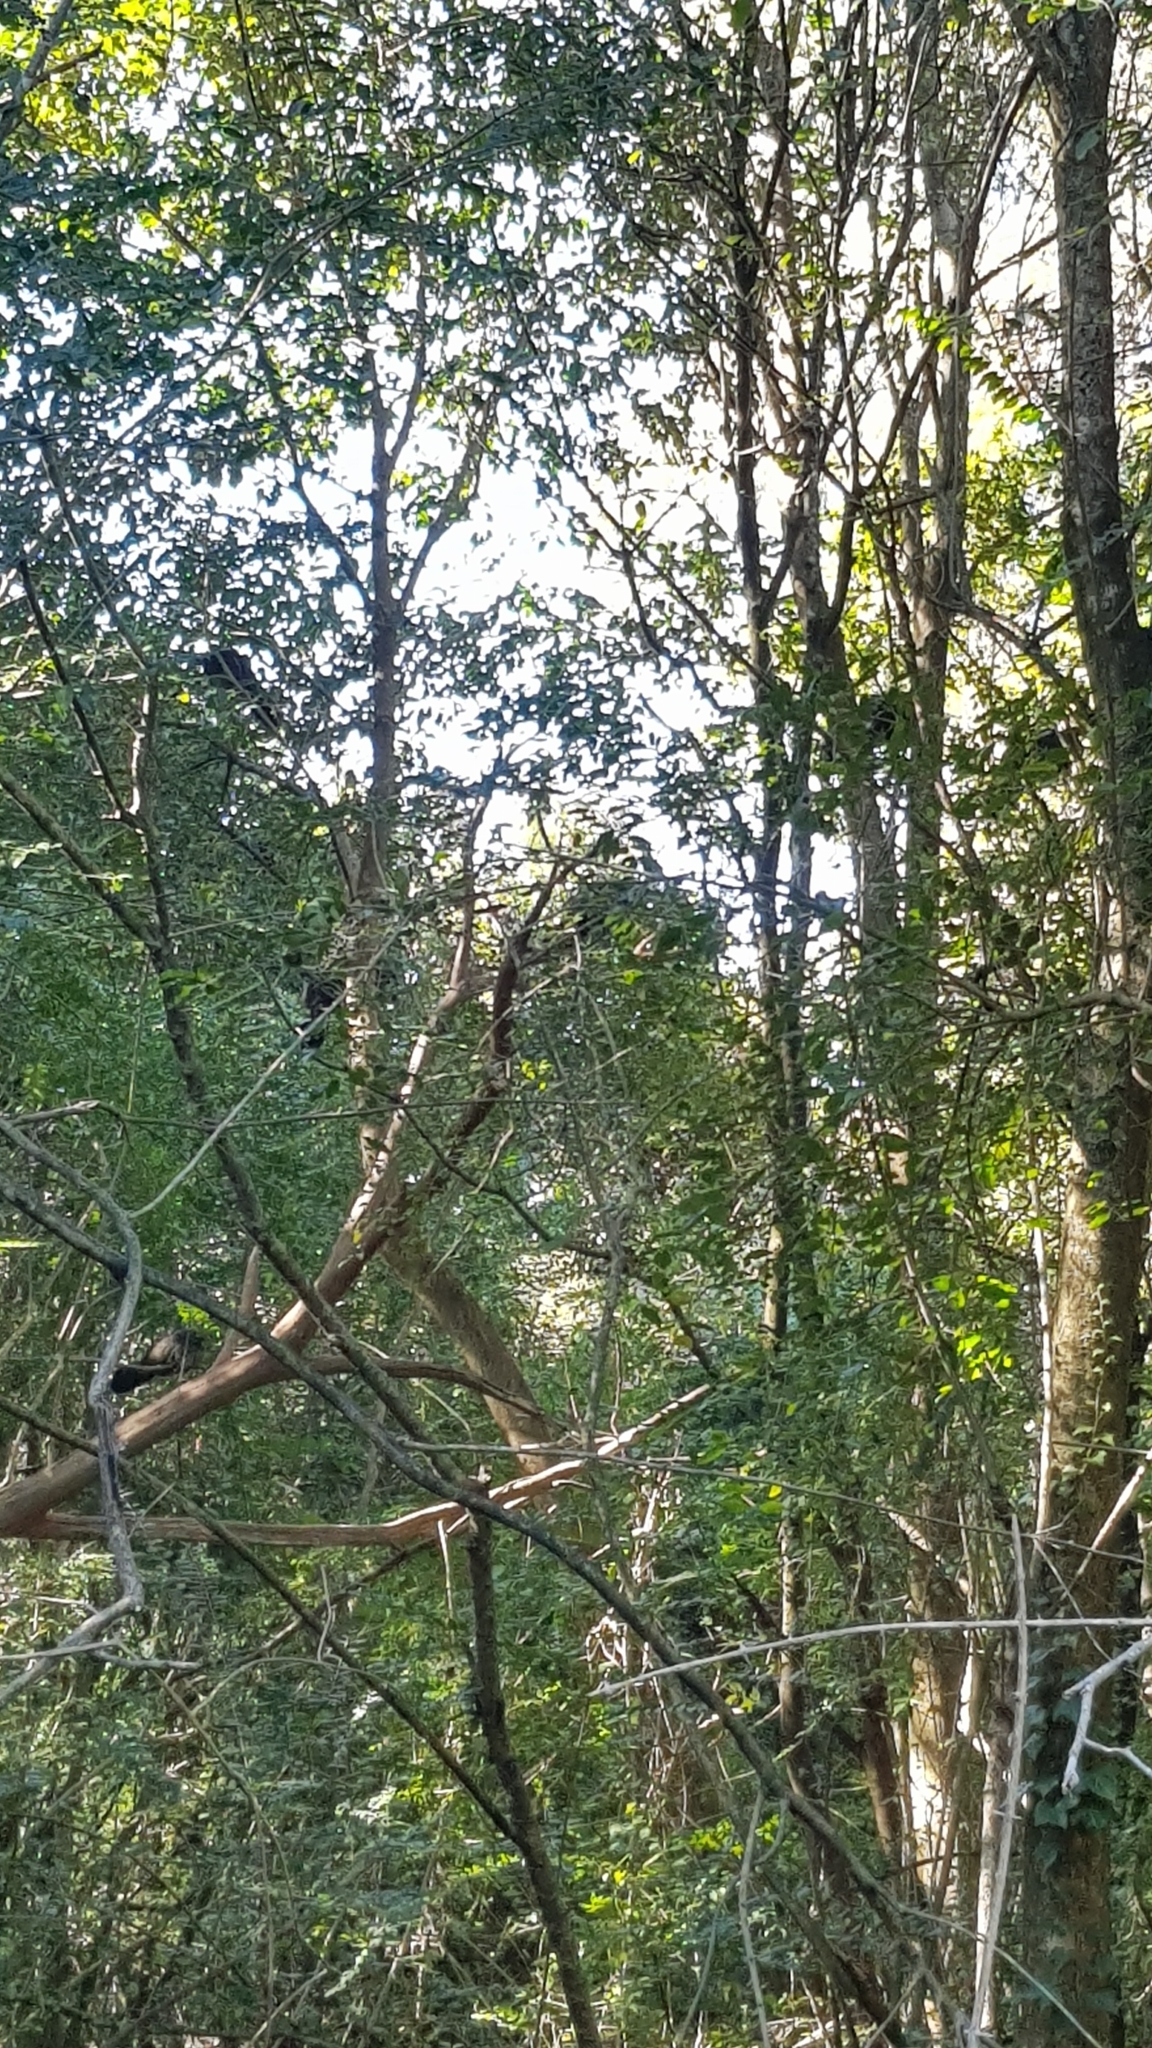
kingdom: Animalia
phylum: Chordata
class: Aves
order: Galliformes
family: Megapodiidae
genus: Alectura
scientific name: Alectura lathami
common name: Australian brushturkey
